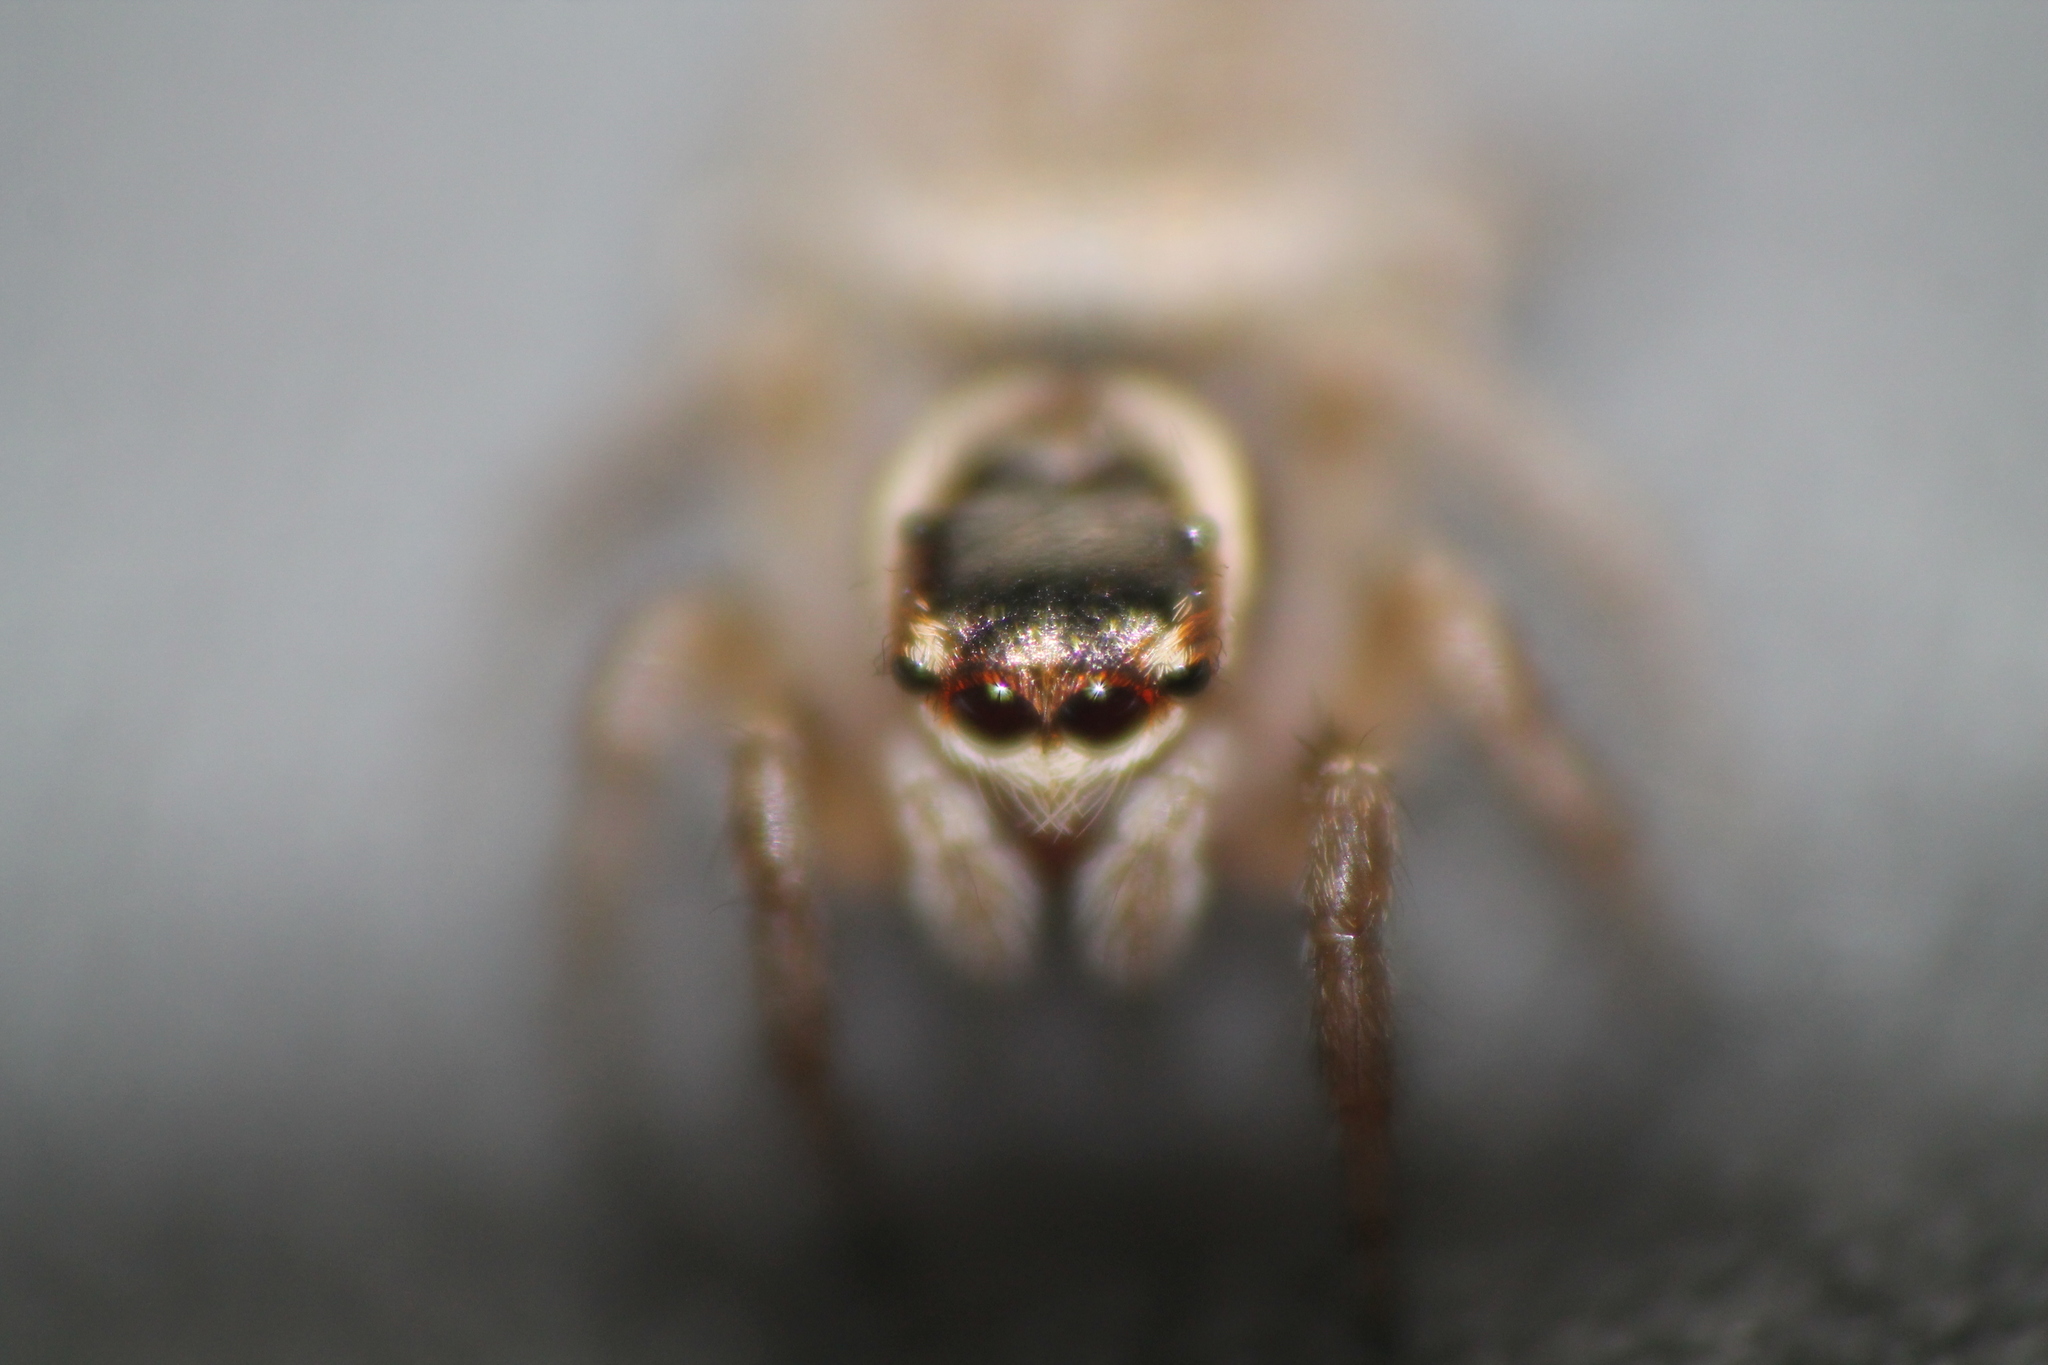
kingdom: Animalia
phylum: Arthropoda
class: Arachnida
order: Araneae
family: Salticidae
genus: Maratus
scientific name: Maratus griseus
